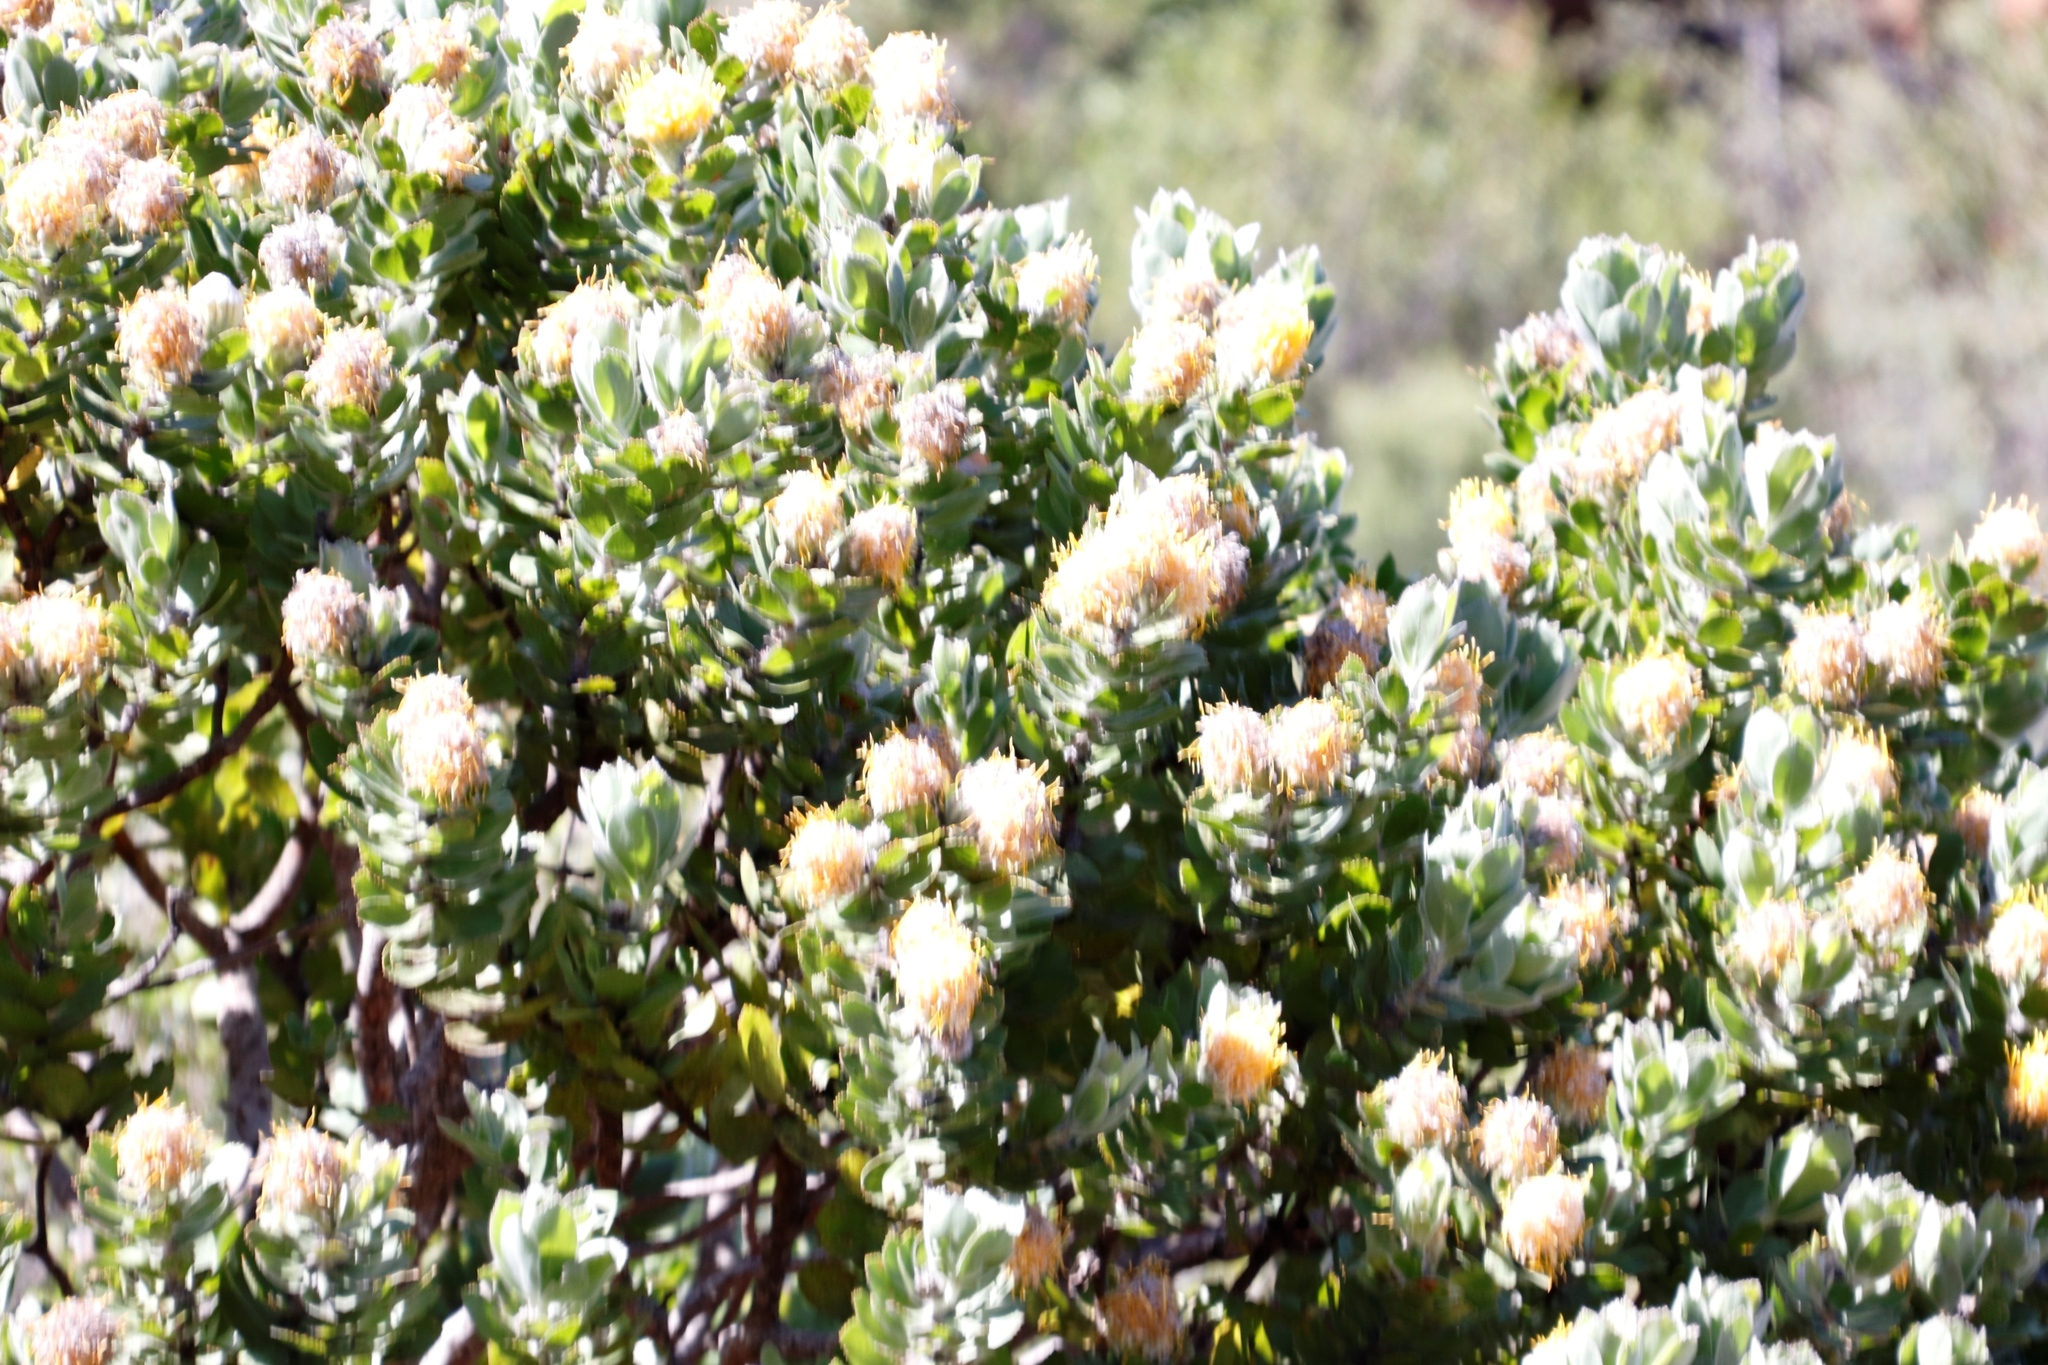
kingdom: Plantae
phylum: Tracheophyta
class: Magnoliopsida
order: Proteales
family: Proteaceae
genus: Leucospermum
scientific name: Leucospermum conocarpodendron
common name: Tree pincushion
